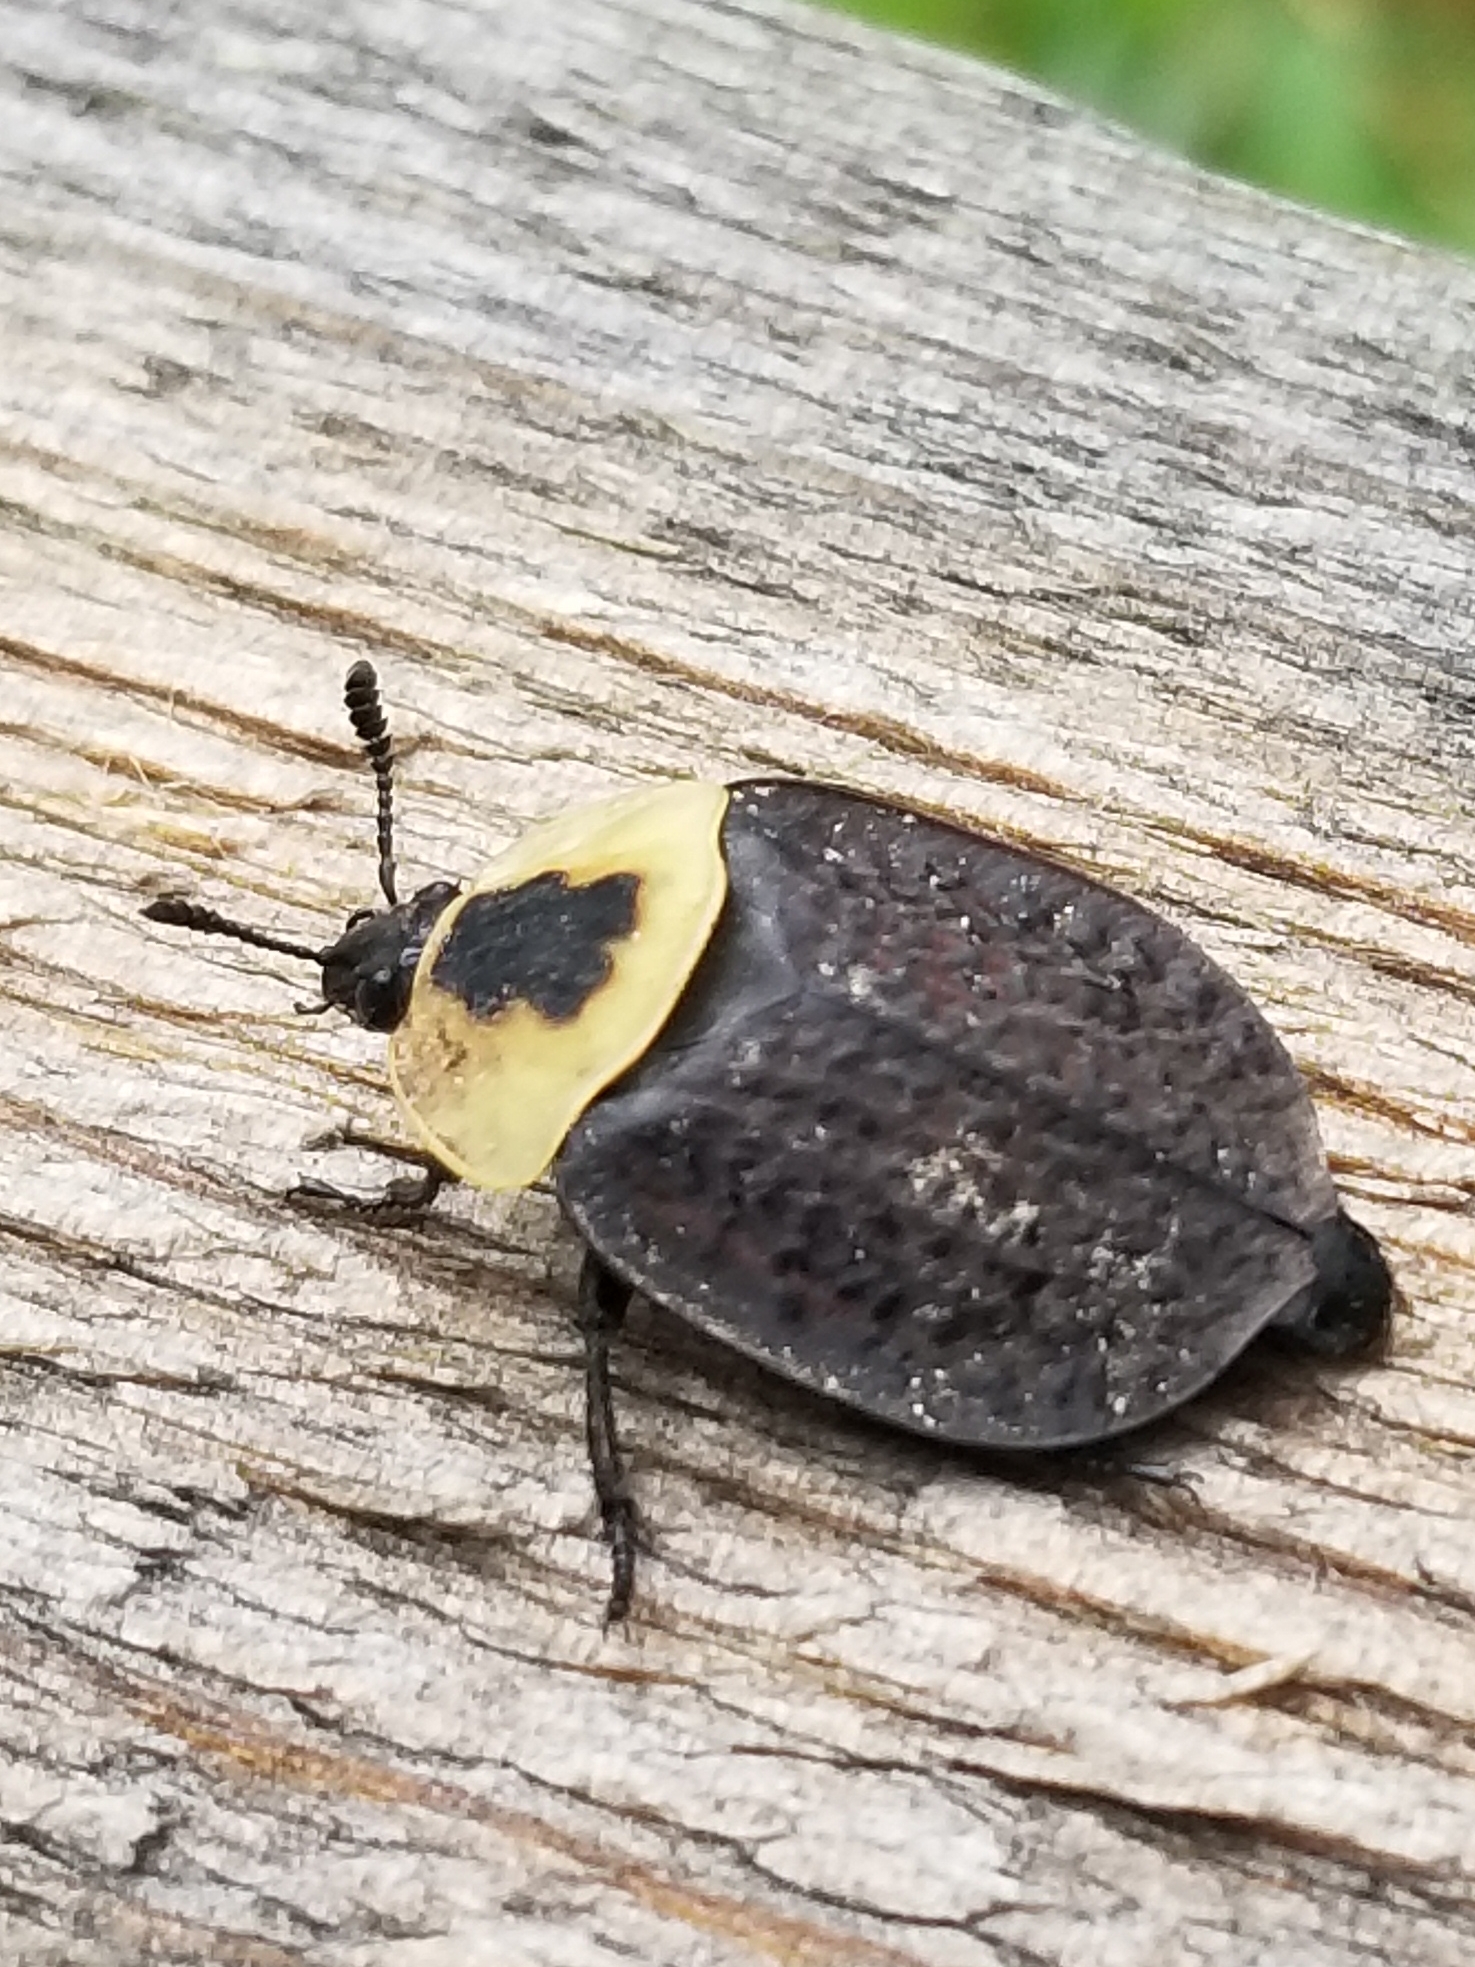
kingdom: Animalia
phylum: Arthropoda
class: Insecta
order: Coleoptera
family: Staphylinidae
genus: Necrophila
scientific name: Necrophila americana
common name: American carrion beetle
